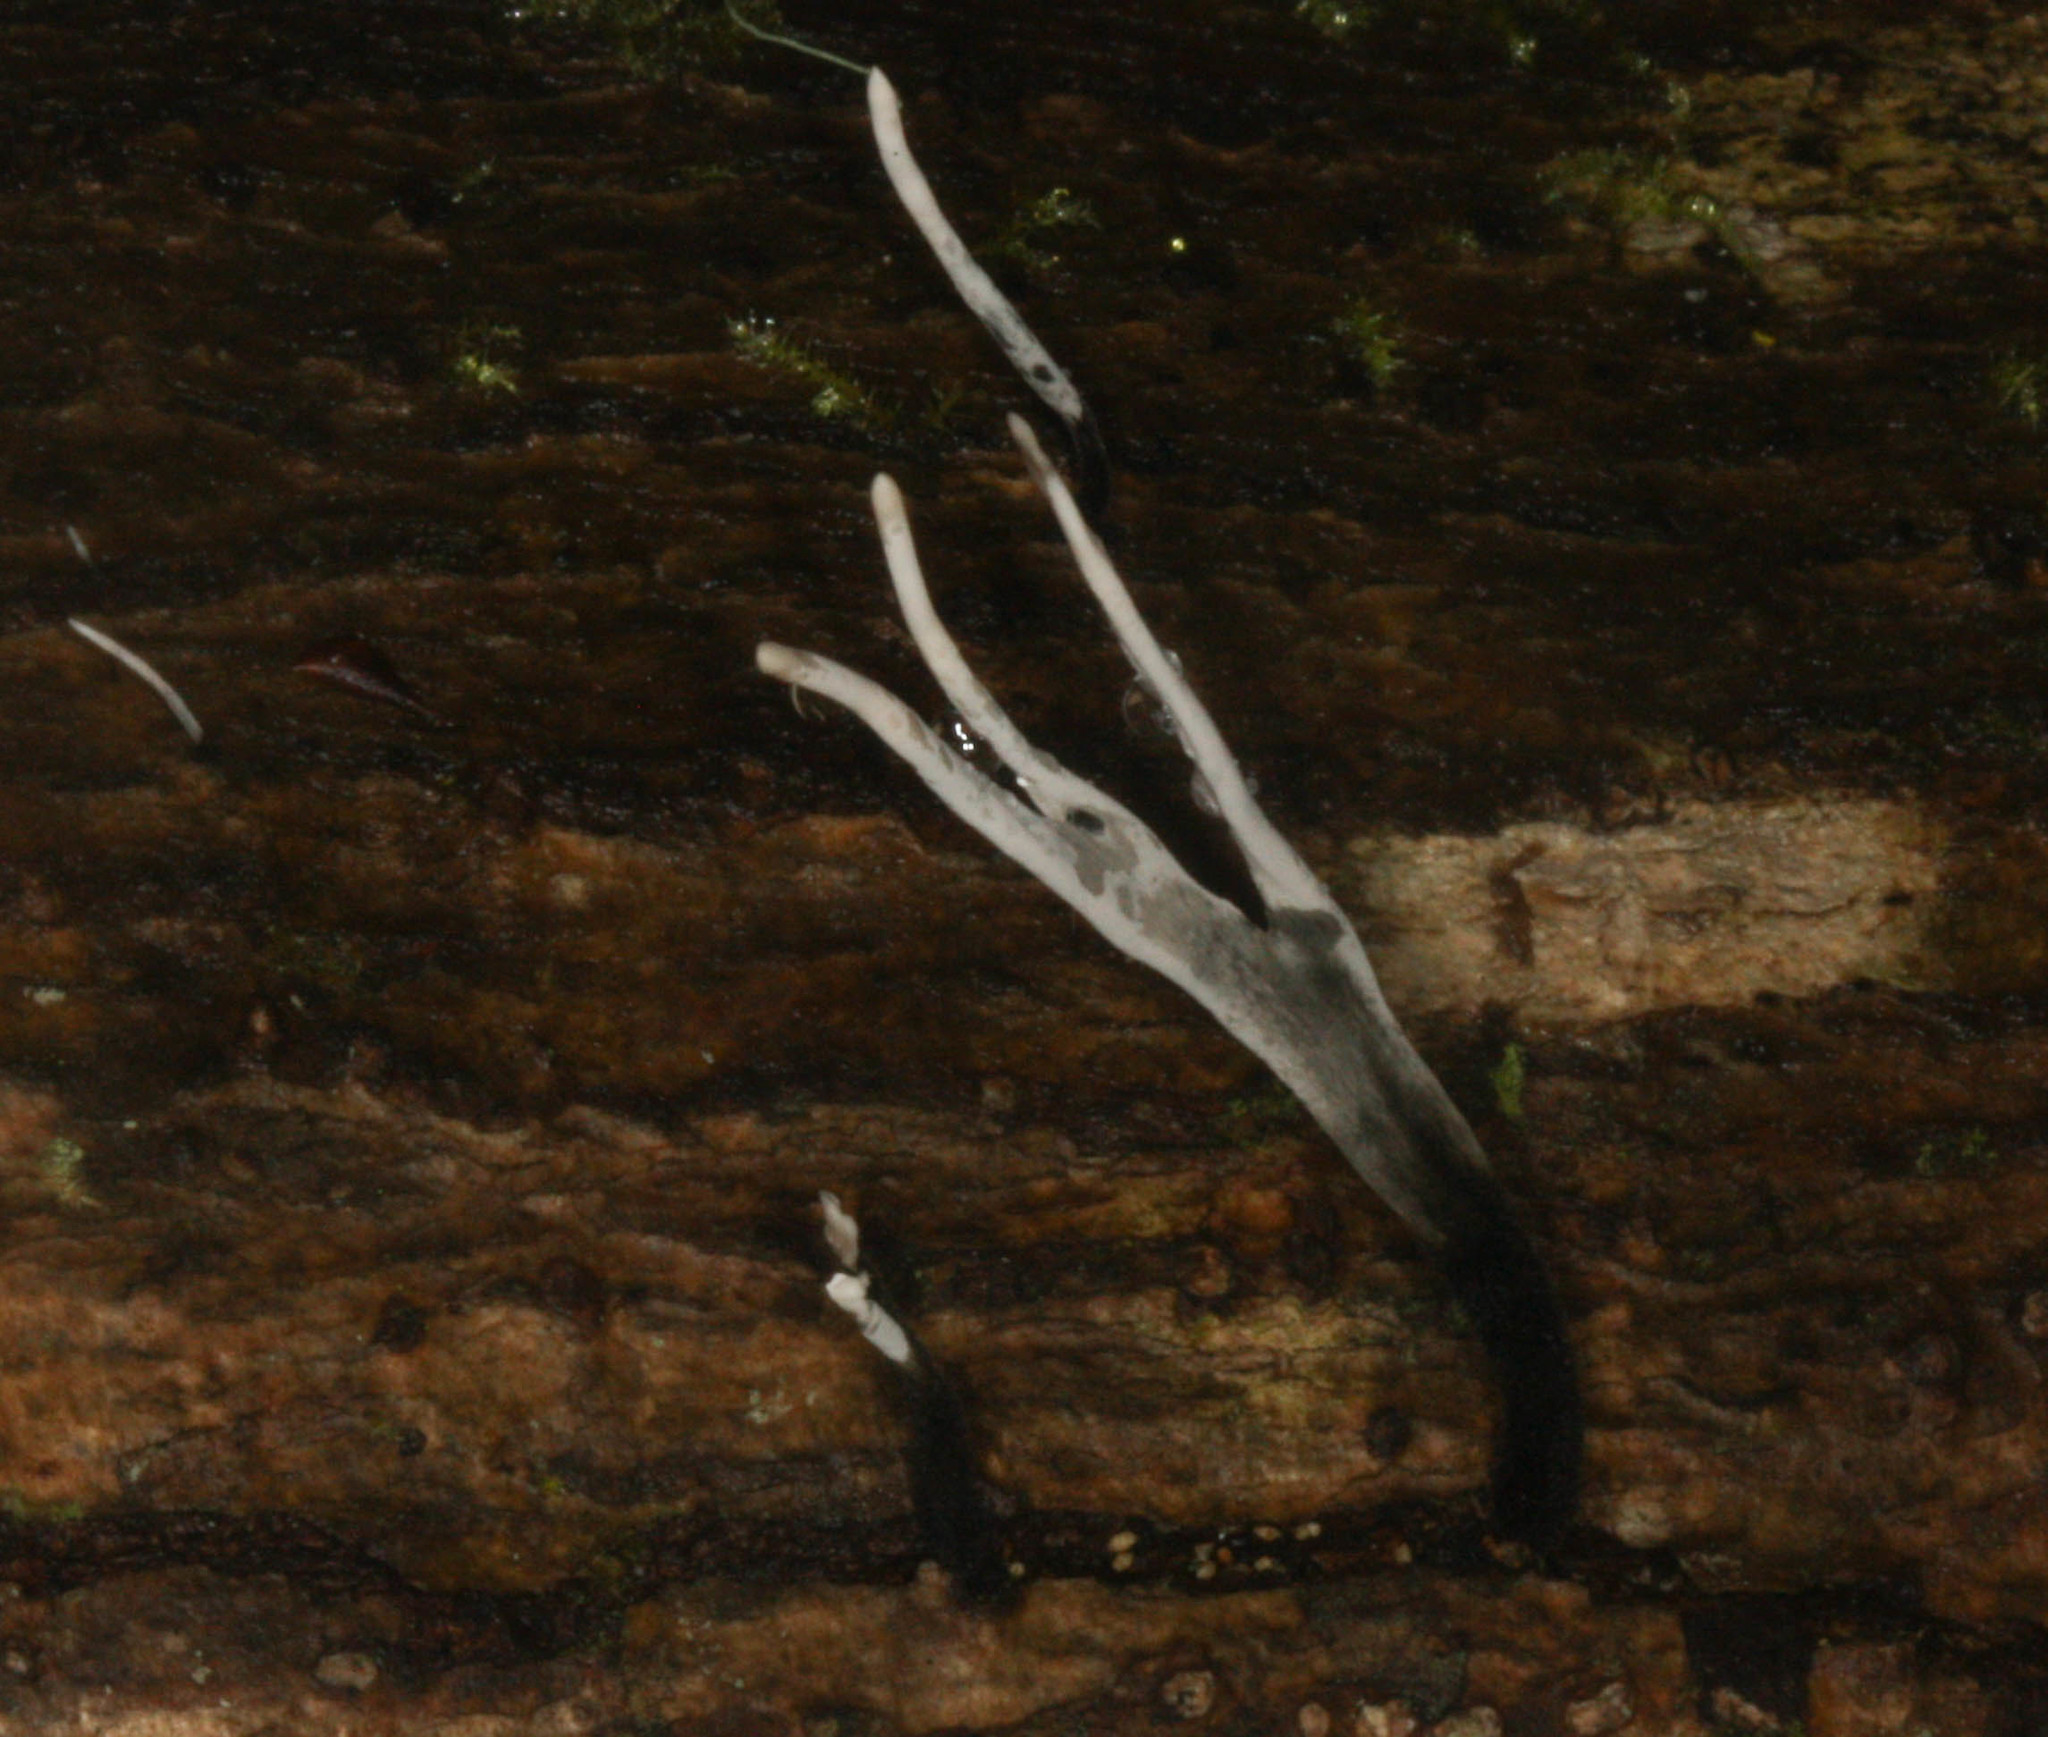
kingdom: Fungi
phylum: Ascomycota
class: Sordariomycetes
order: Xylariales
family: Xylariaceae
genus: Xylaria
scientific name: Xylaria hypoxylon
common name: Candle-snuff fungus
